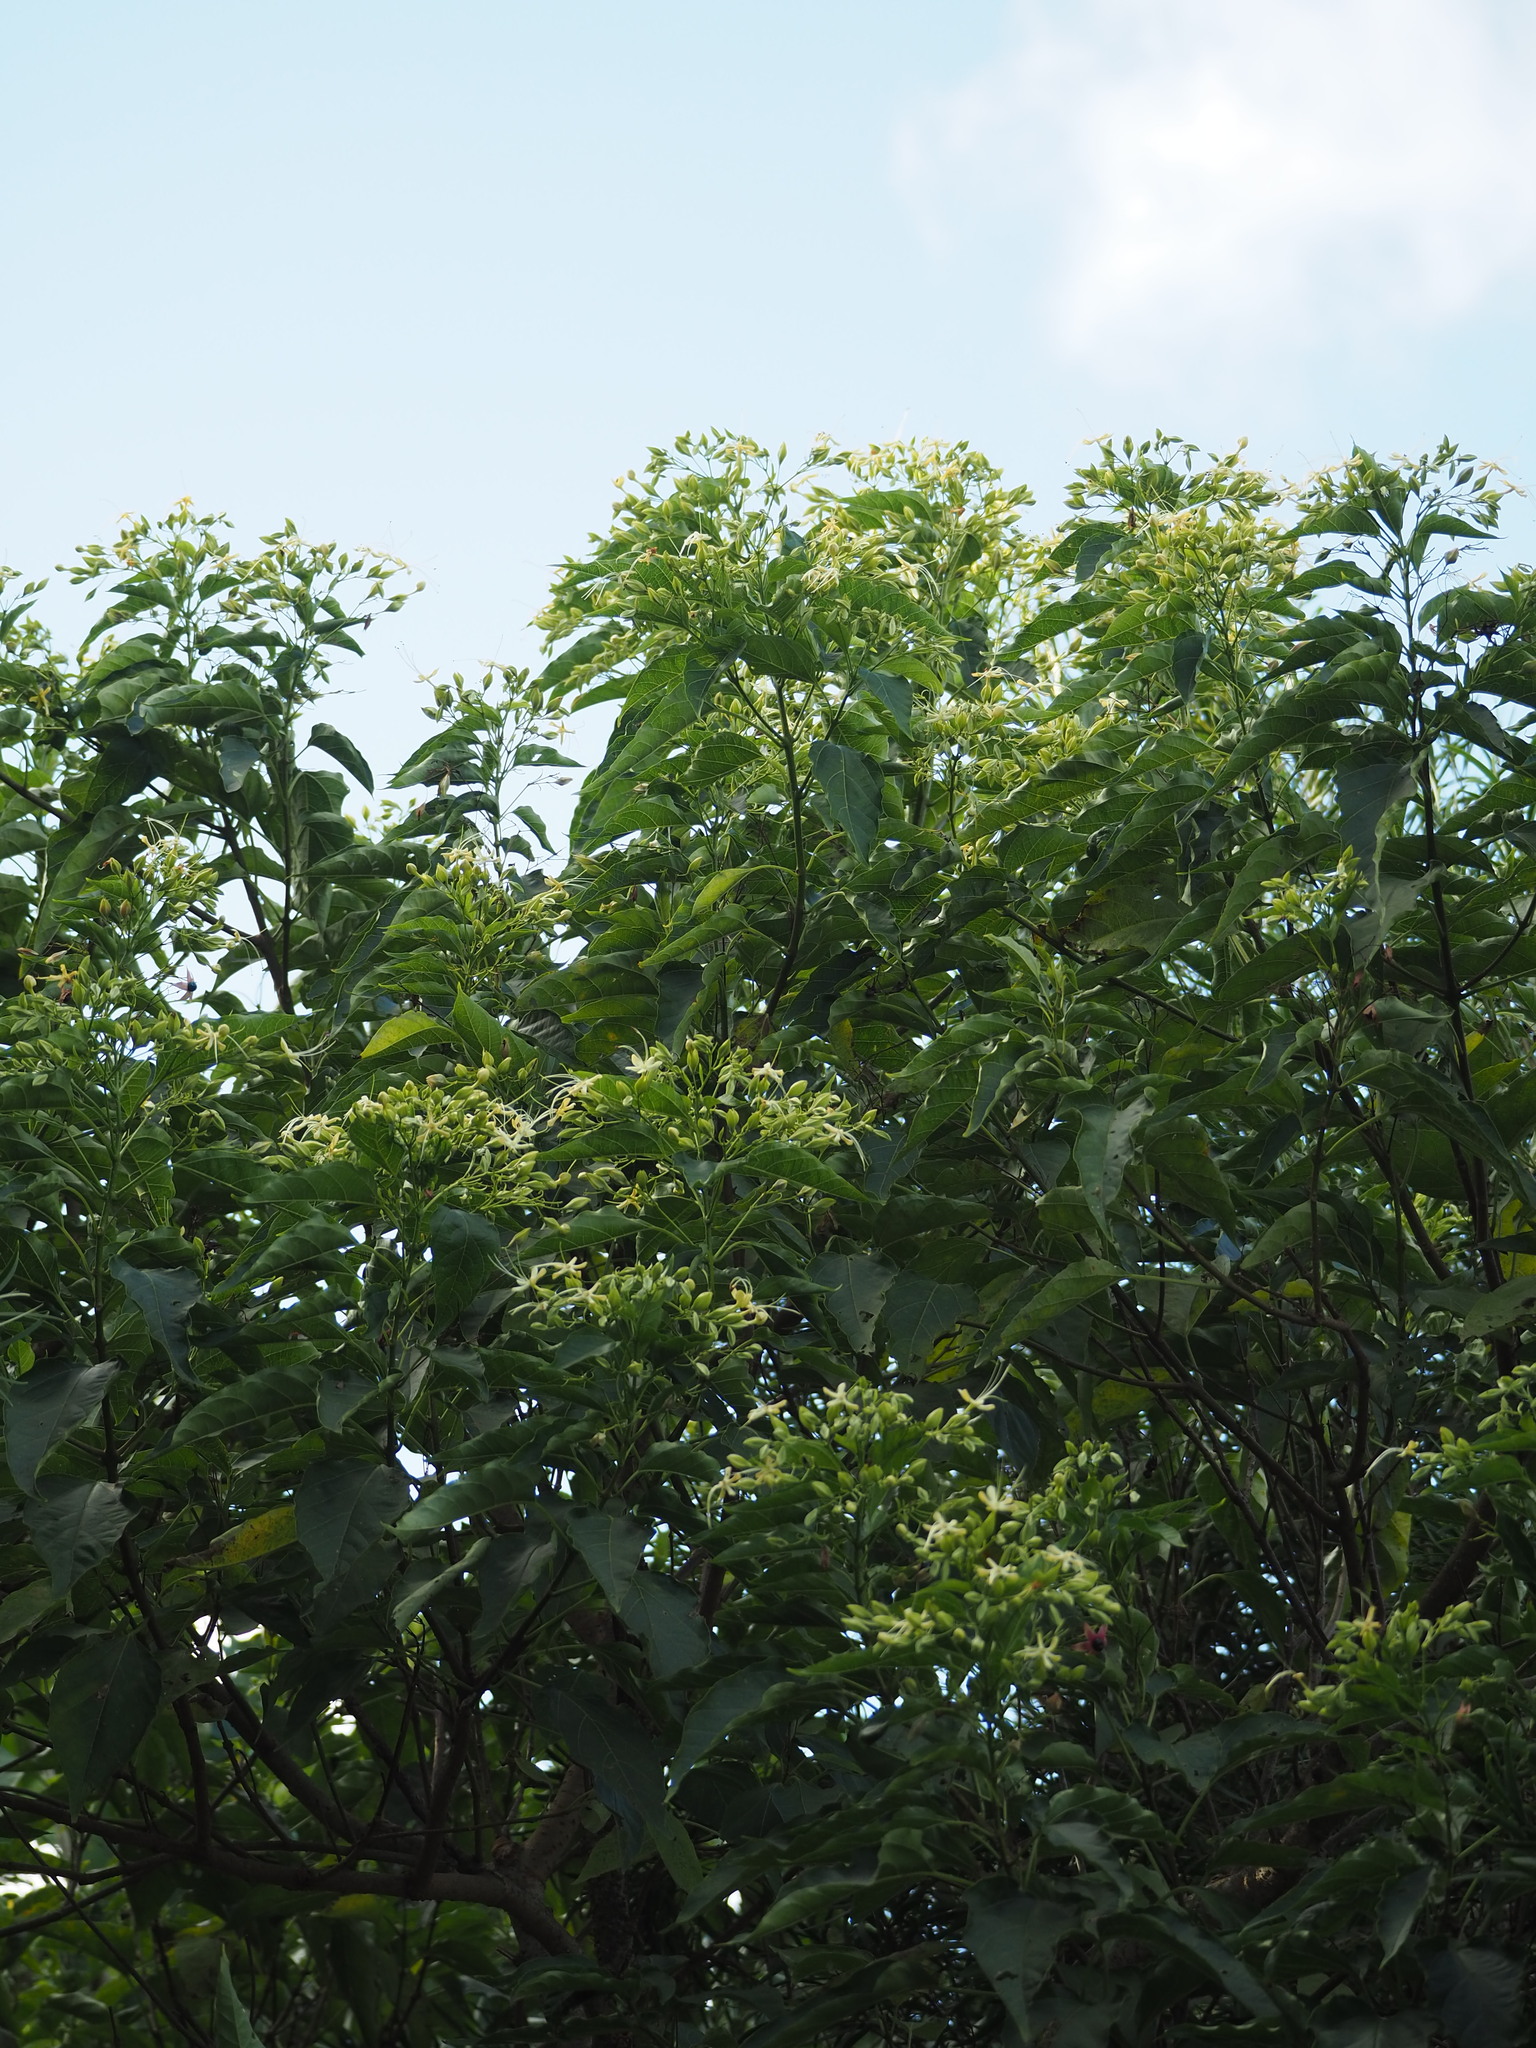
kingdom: Plantae
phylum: Tracheophyta
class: Magnoliopsida
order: Lamiales
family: Lamiaceae
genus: Clerodendrum
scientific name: Clerodendrum trichotomum
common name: Harlequin glorybower
